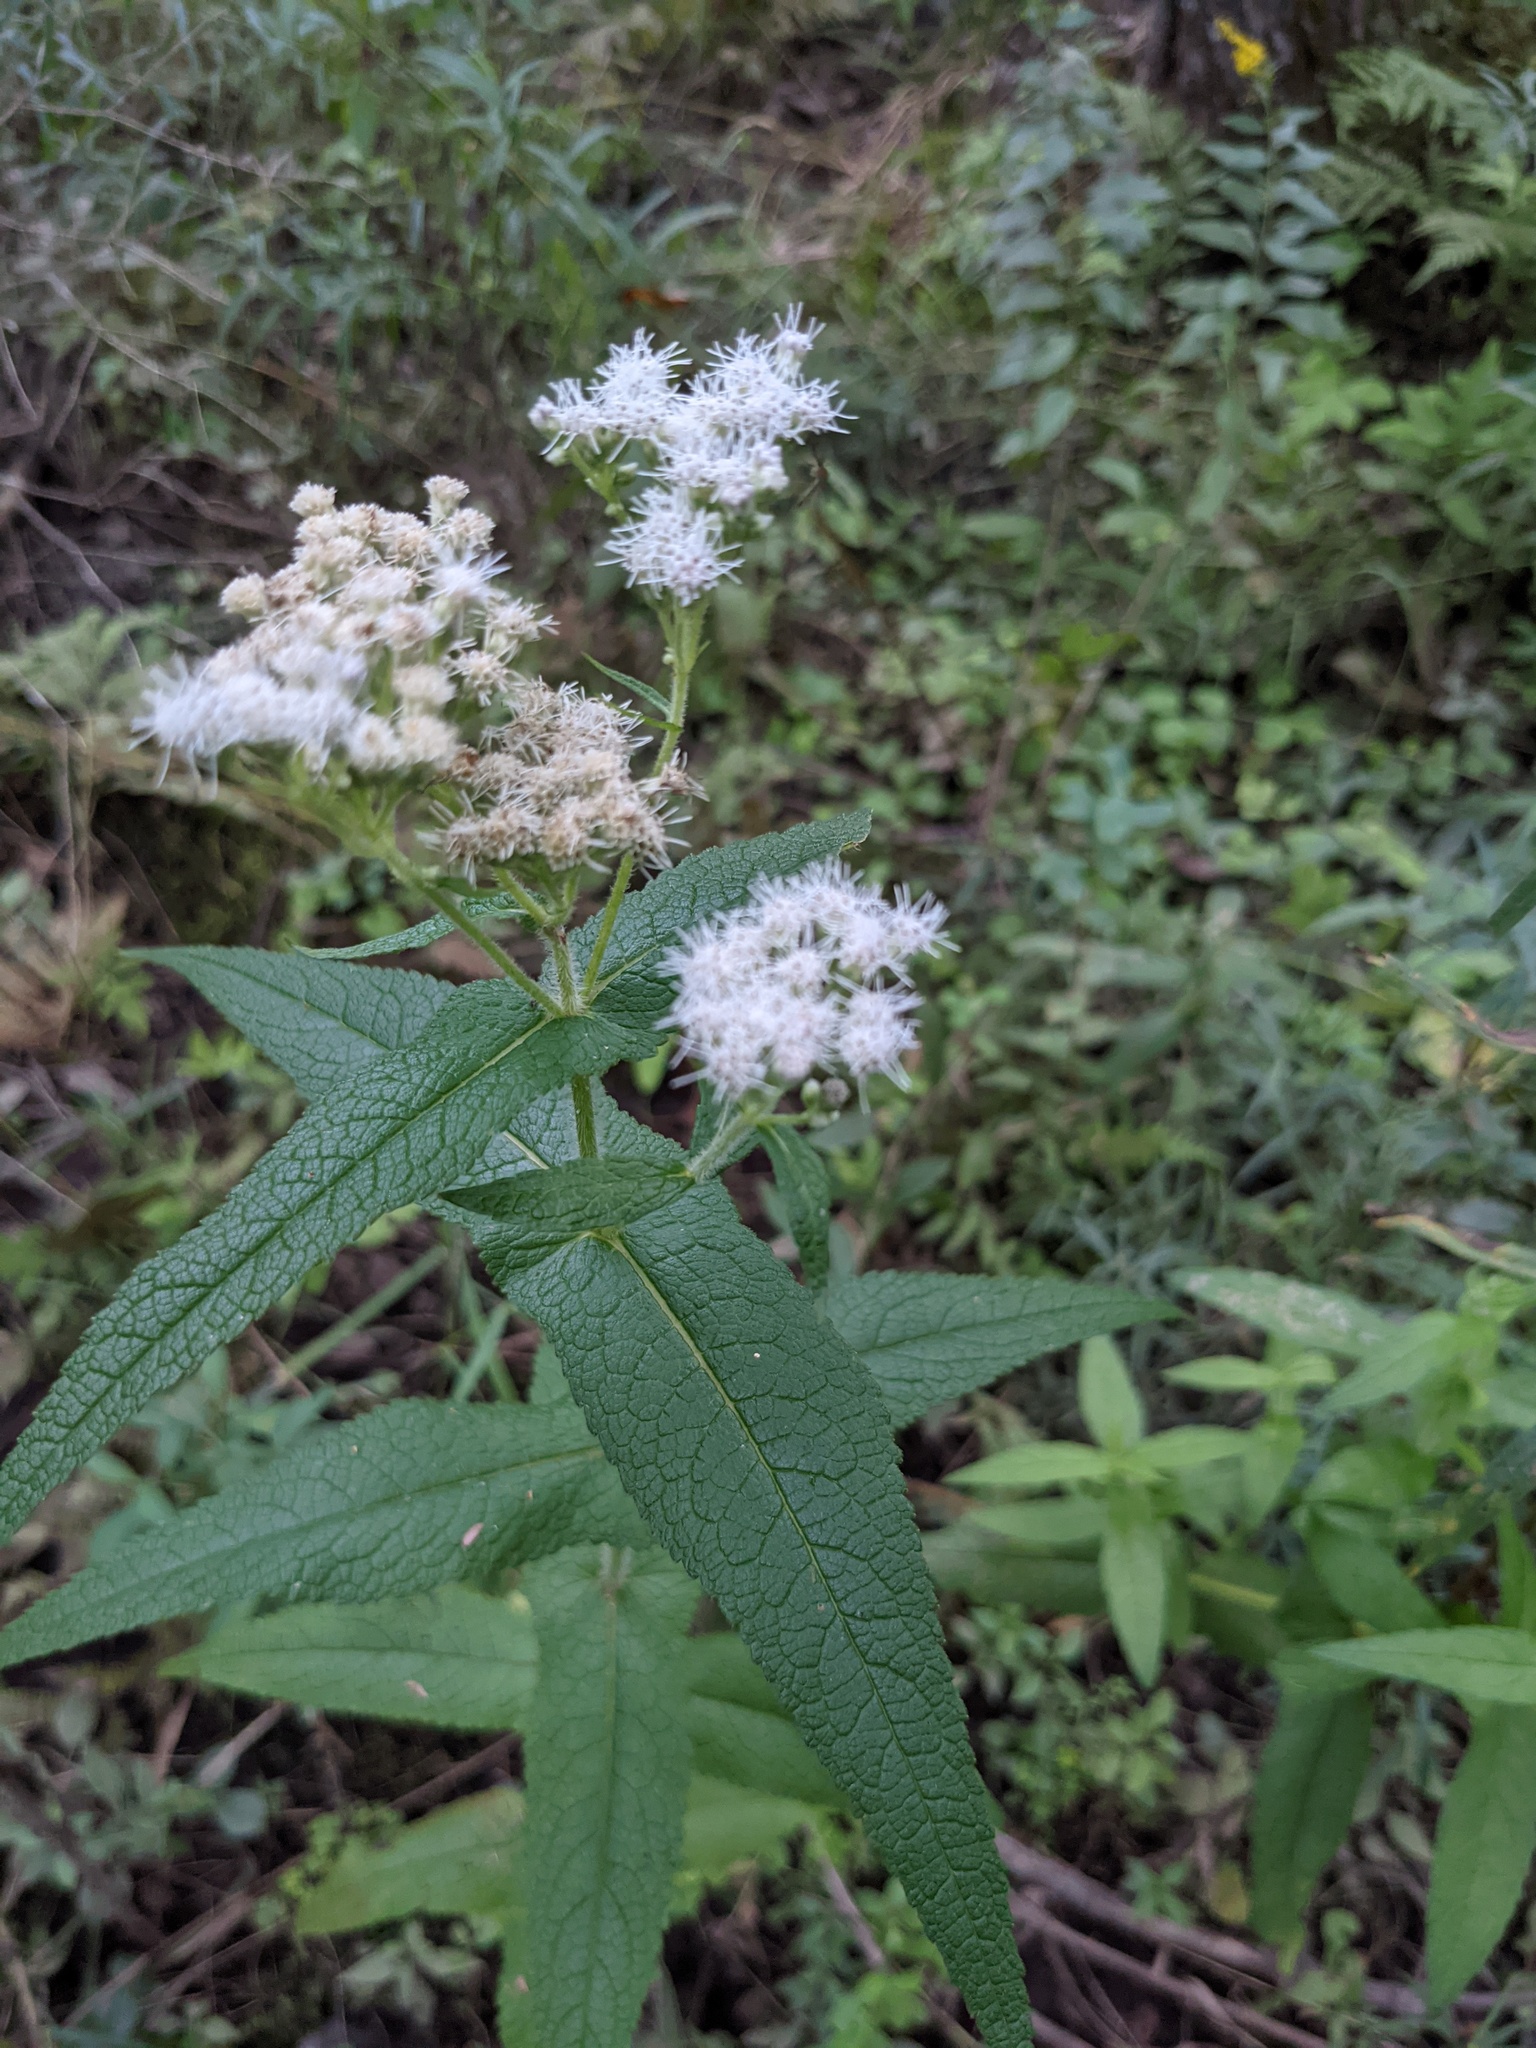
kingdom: Plantae
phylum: Tracheophyta
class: Magnoliopsida
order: Asterales
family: Asteraceae
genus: Eupatorium
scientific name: Eupatorium perfoliatum
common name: Boneset
